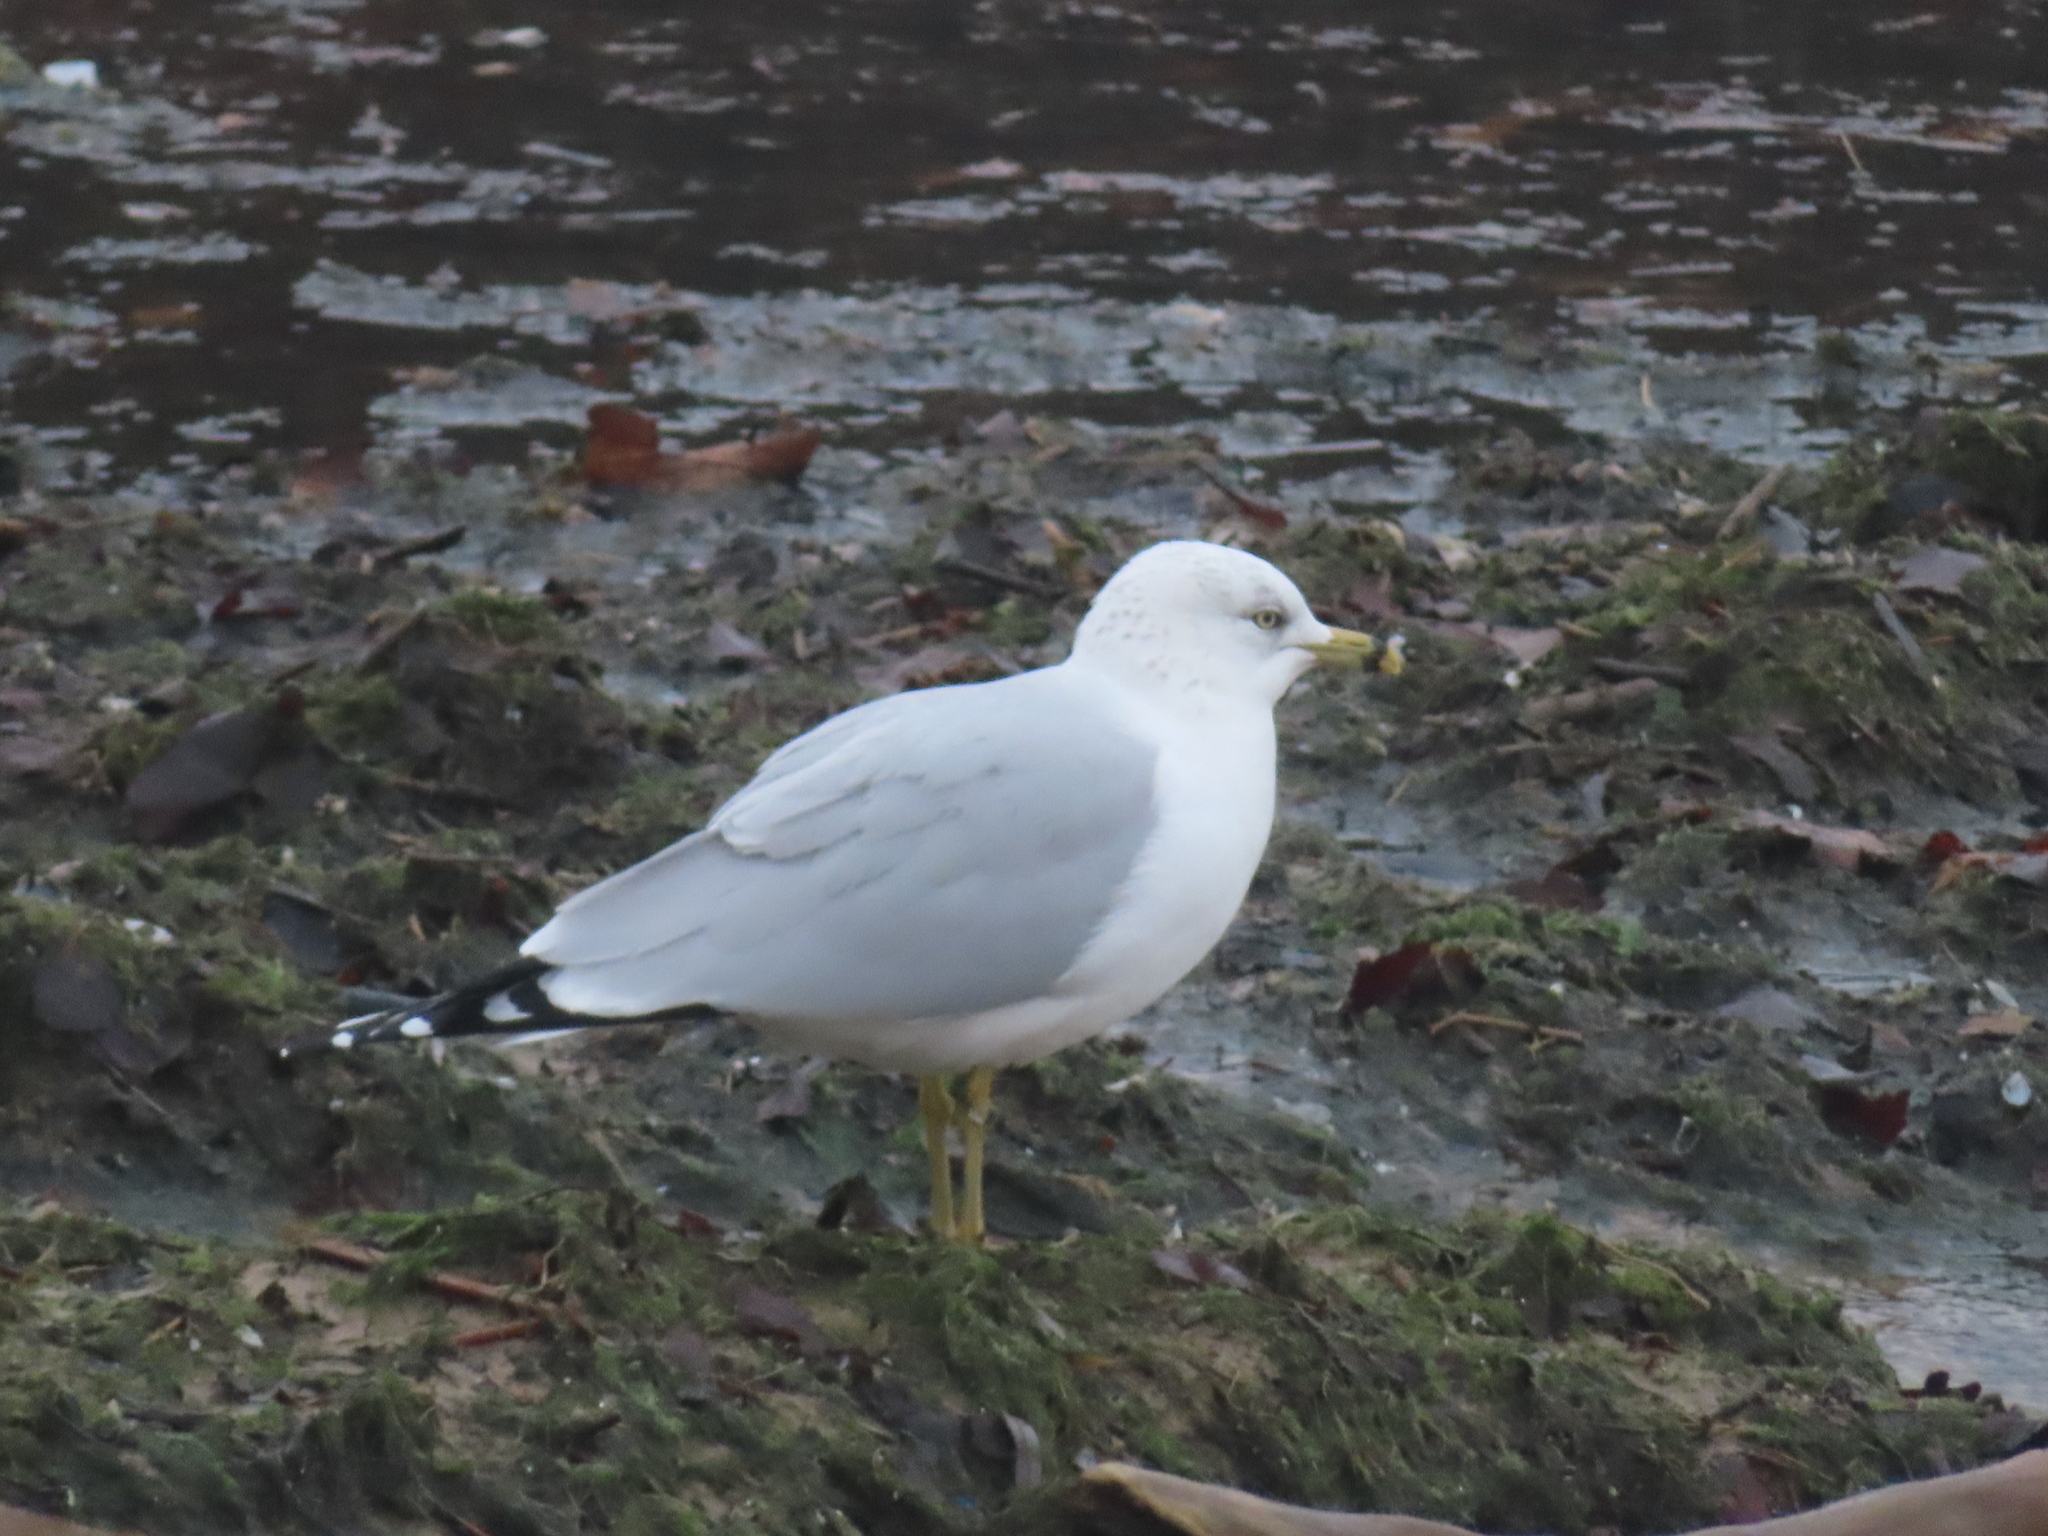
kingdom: Animalia
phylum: Chordata
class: Aves
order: Charadriiformes
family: Laridae
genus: Larus
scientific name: Larus delawarensis
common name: Ring-billed gull
